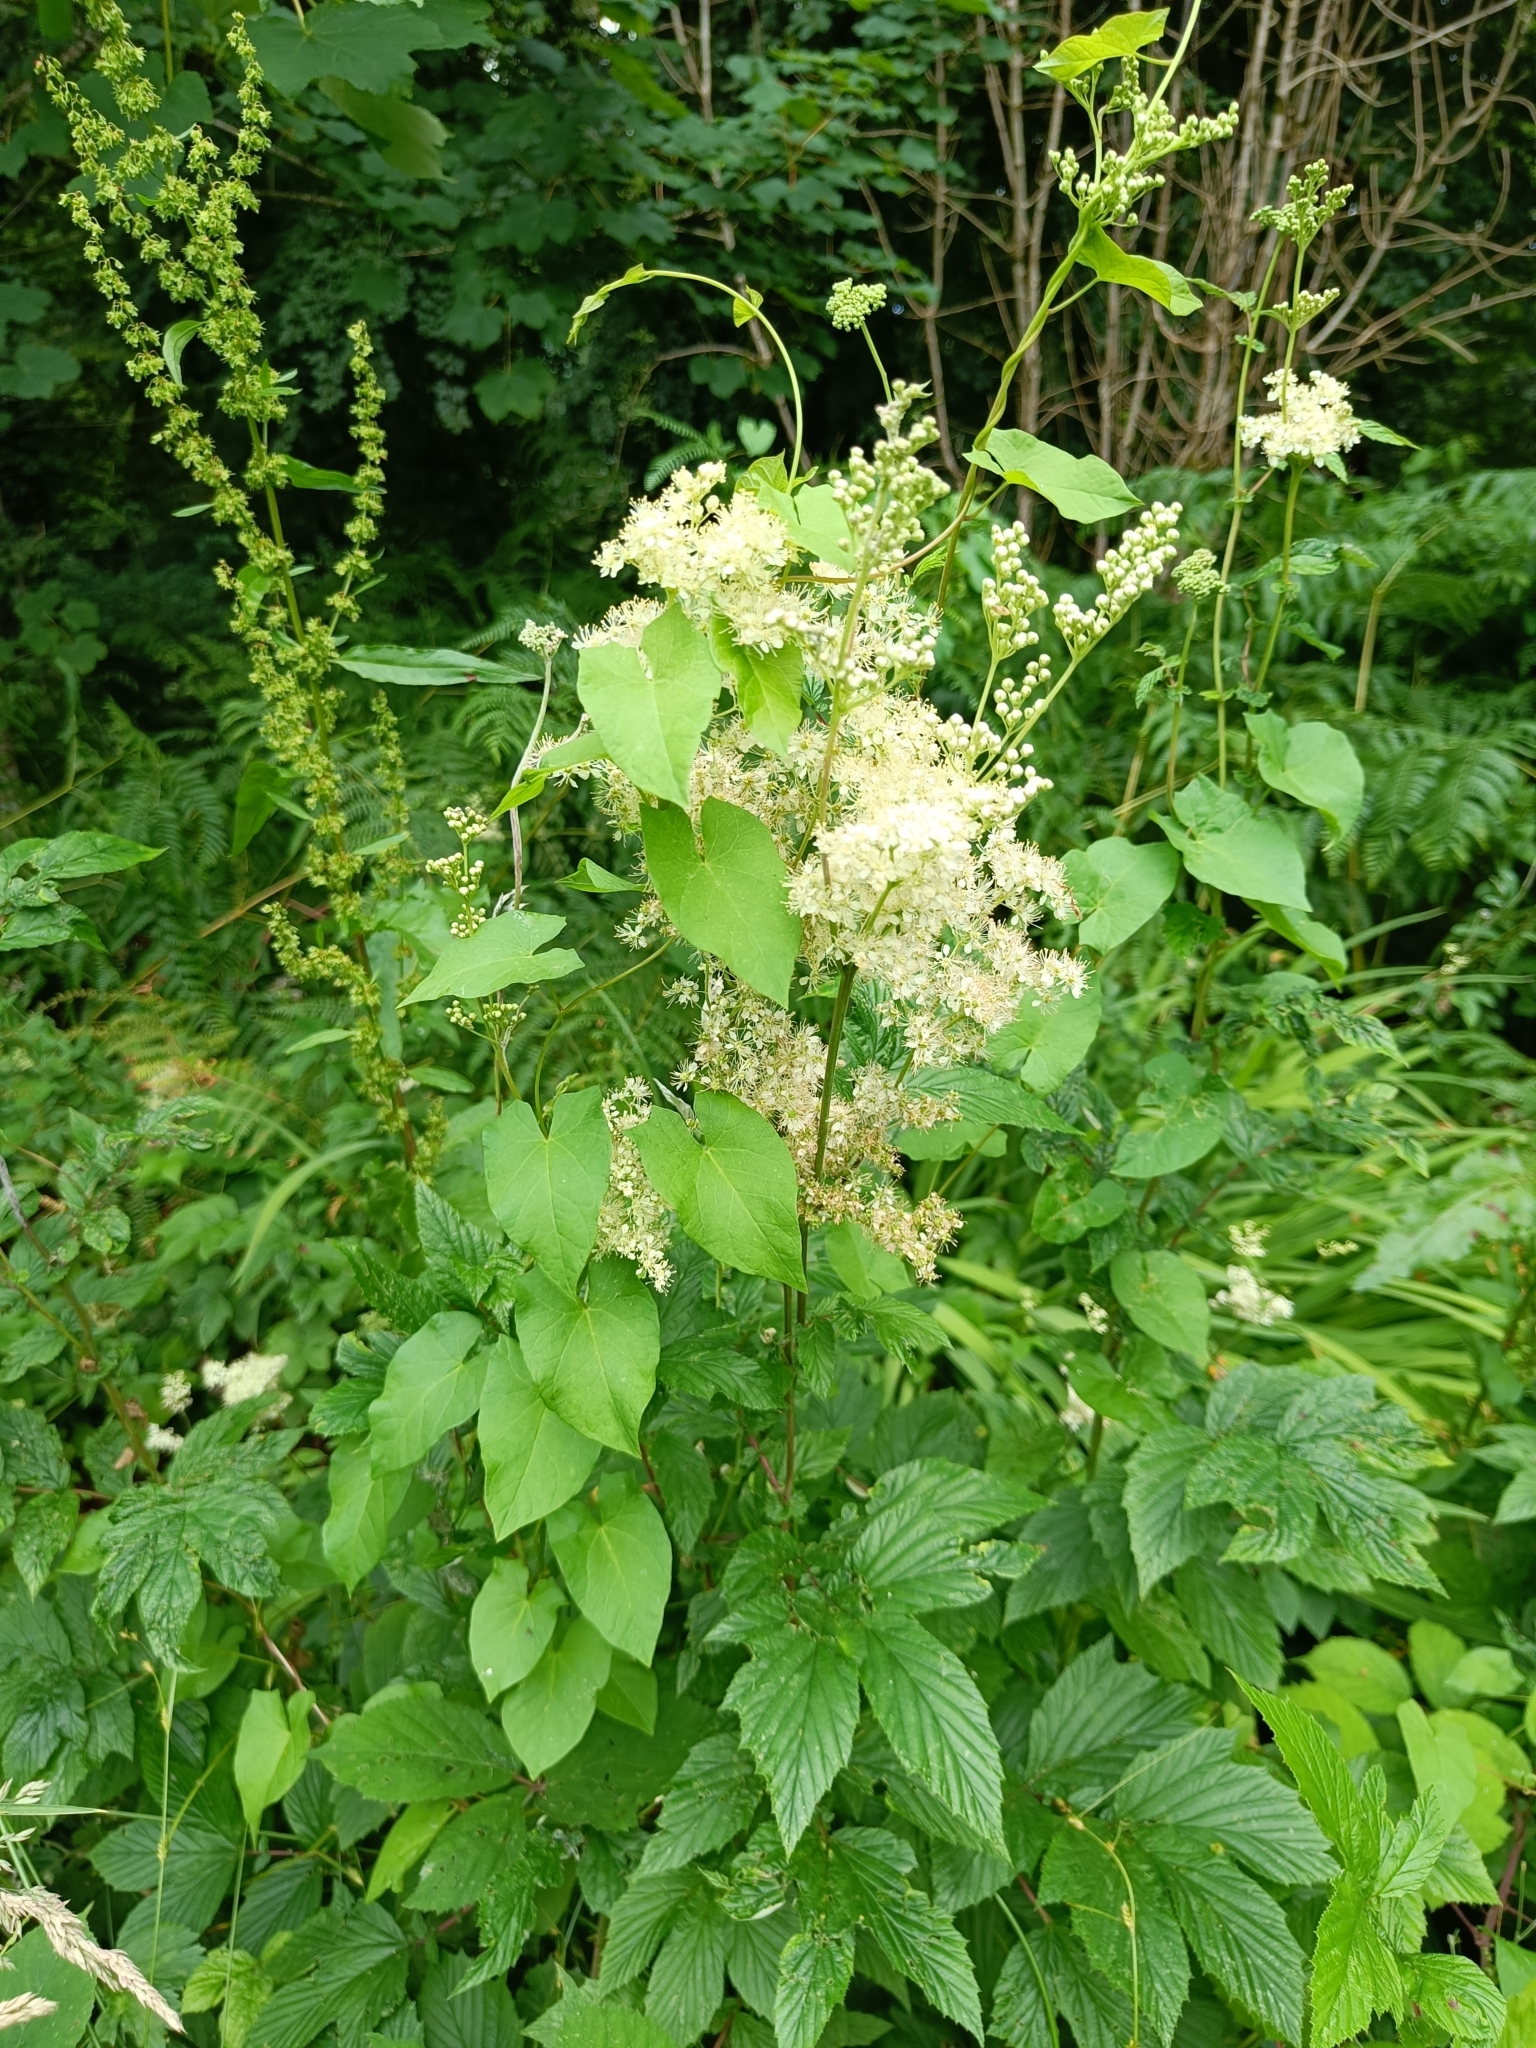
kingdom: Plantae
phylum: Tracheophyta
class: Magnoliopsida
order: Rosales
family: Rosaceae
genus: Filipendula
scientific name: Filipendula ulmaria
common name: Meadowsweet
